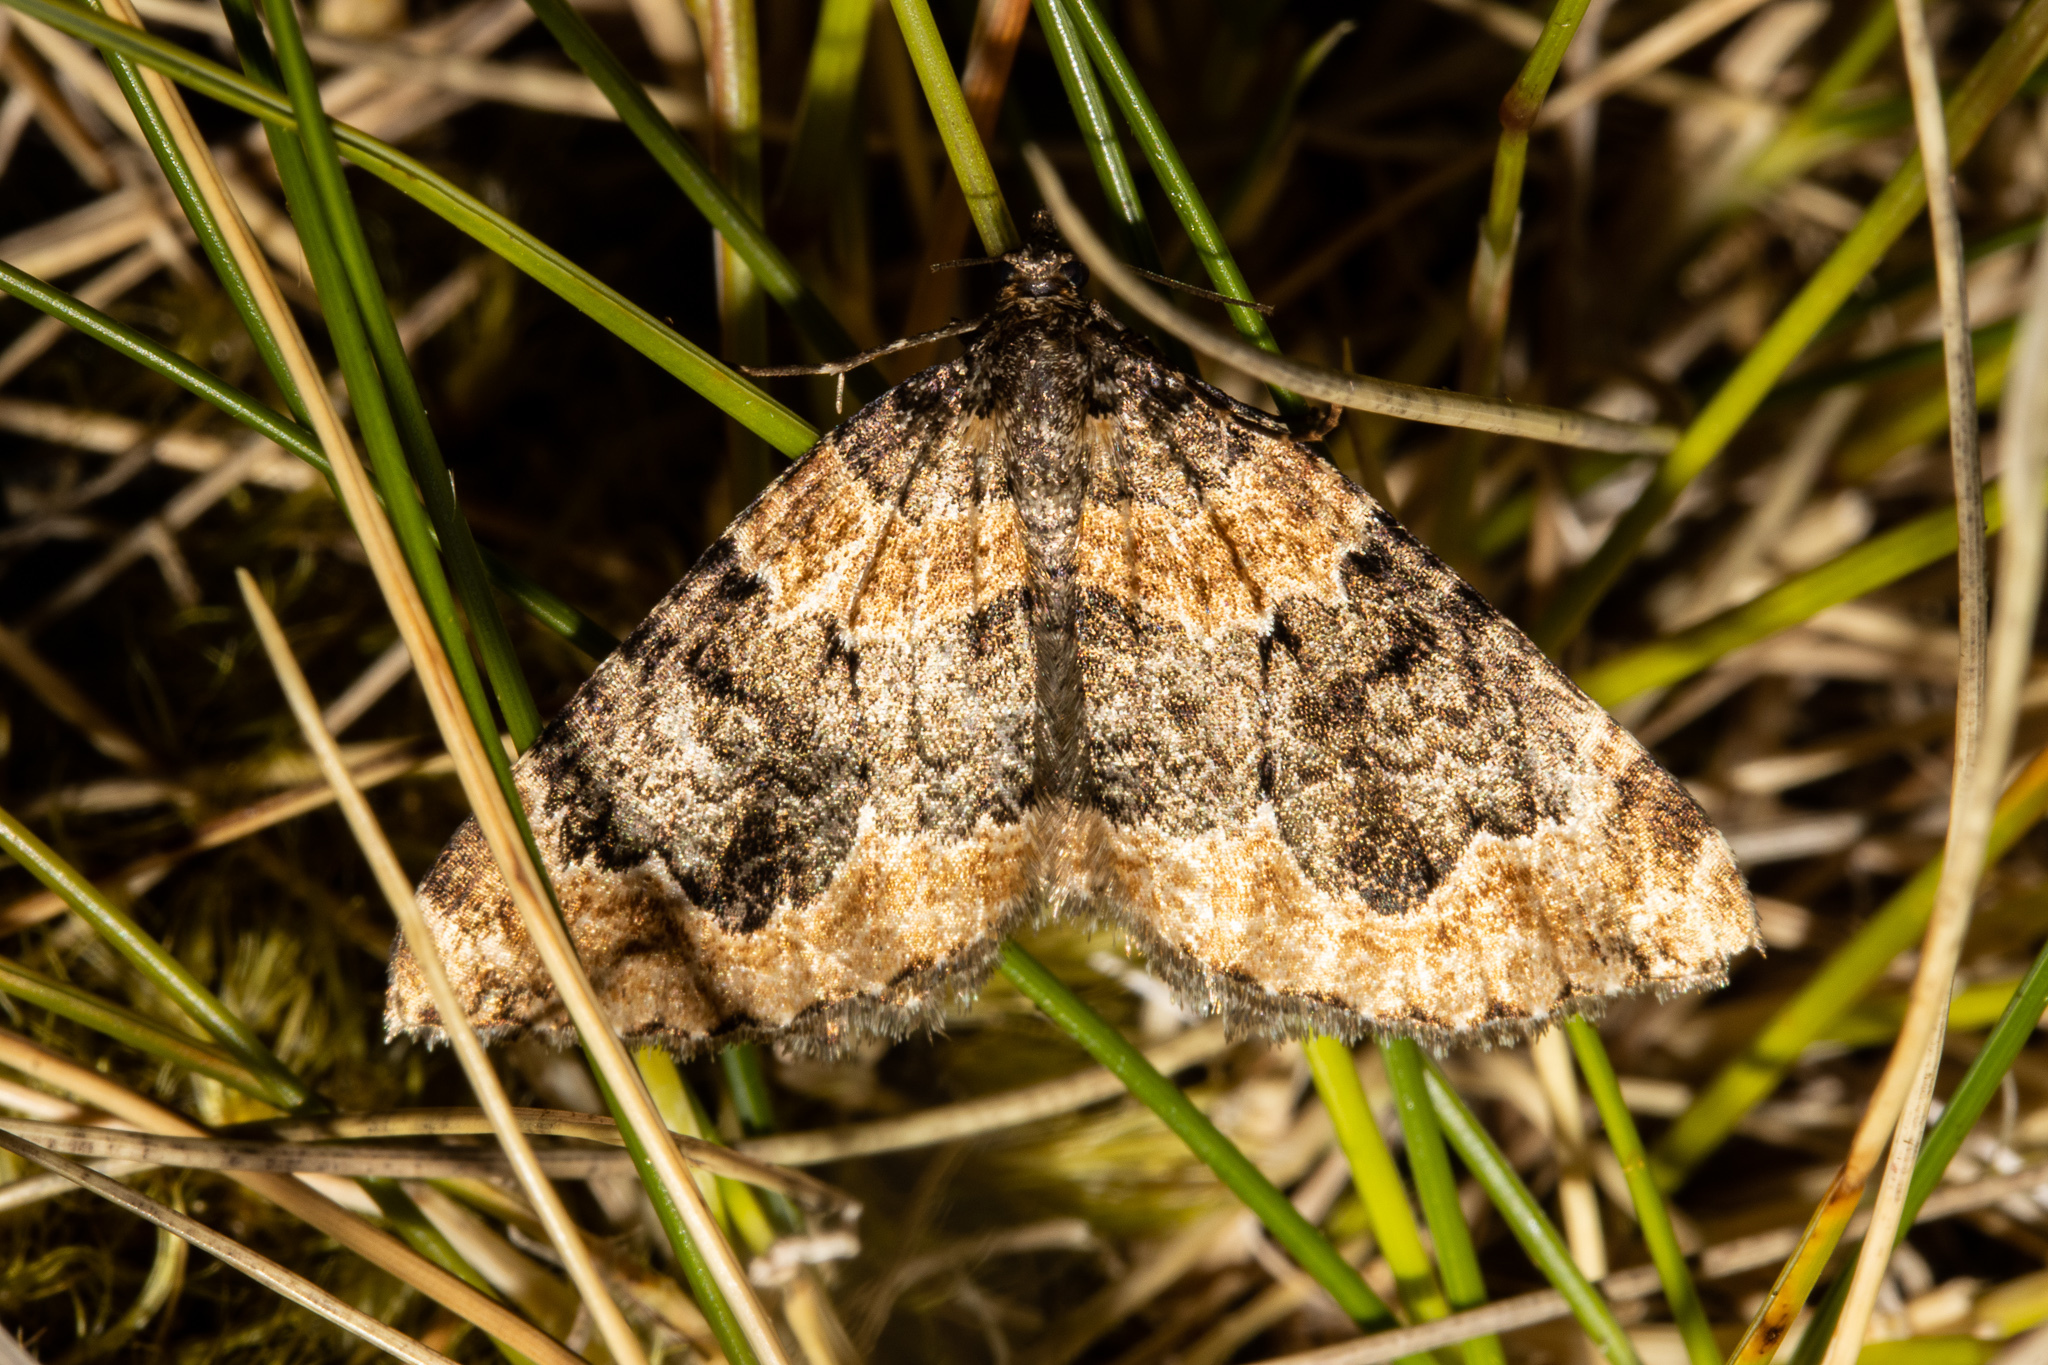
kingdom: Animalia
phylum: Arthropoda
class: Insecta
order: Lepidoptera
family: Geometridae
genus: Hydriomena
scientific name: Hydriomena hemizona
